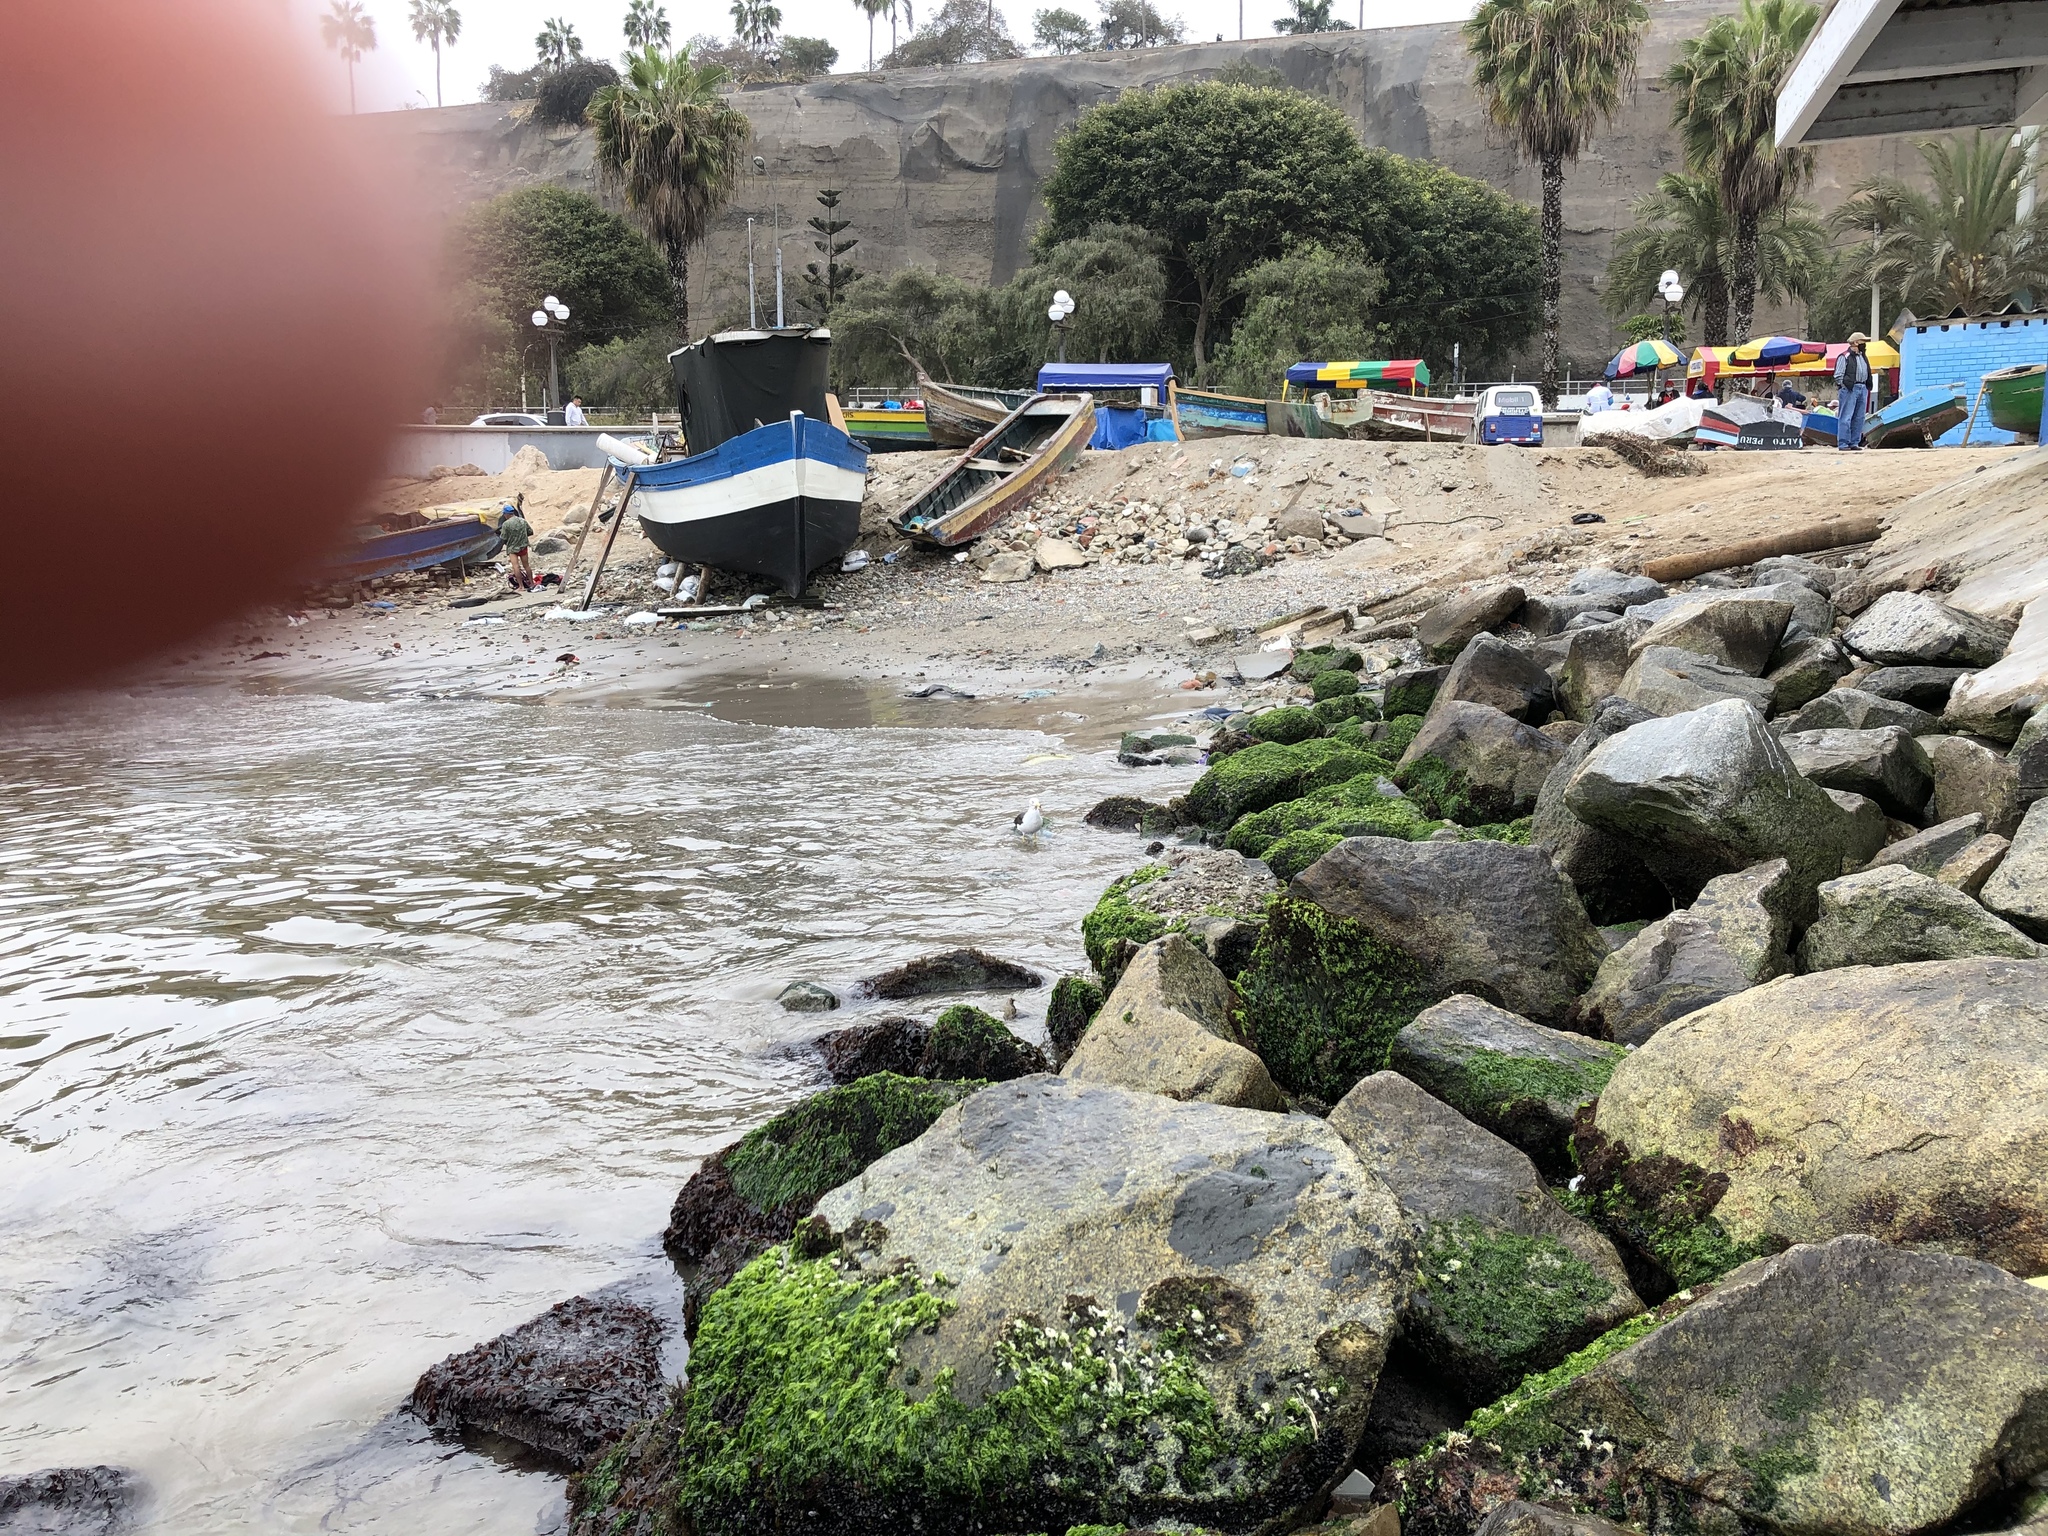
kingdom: Plantae
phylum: Chlorophyta
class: Ulvophyceae
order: Ulvales
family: Ulvaceae
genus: Ulva
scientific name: Ulva intestinalis
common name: Gut weed
